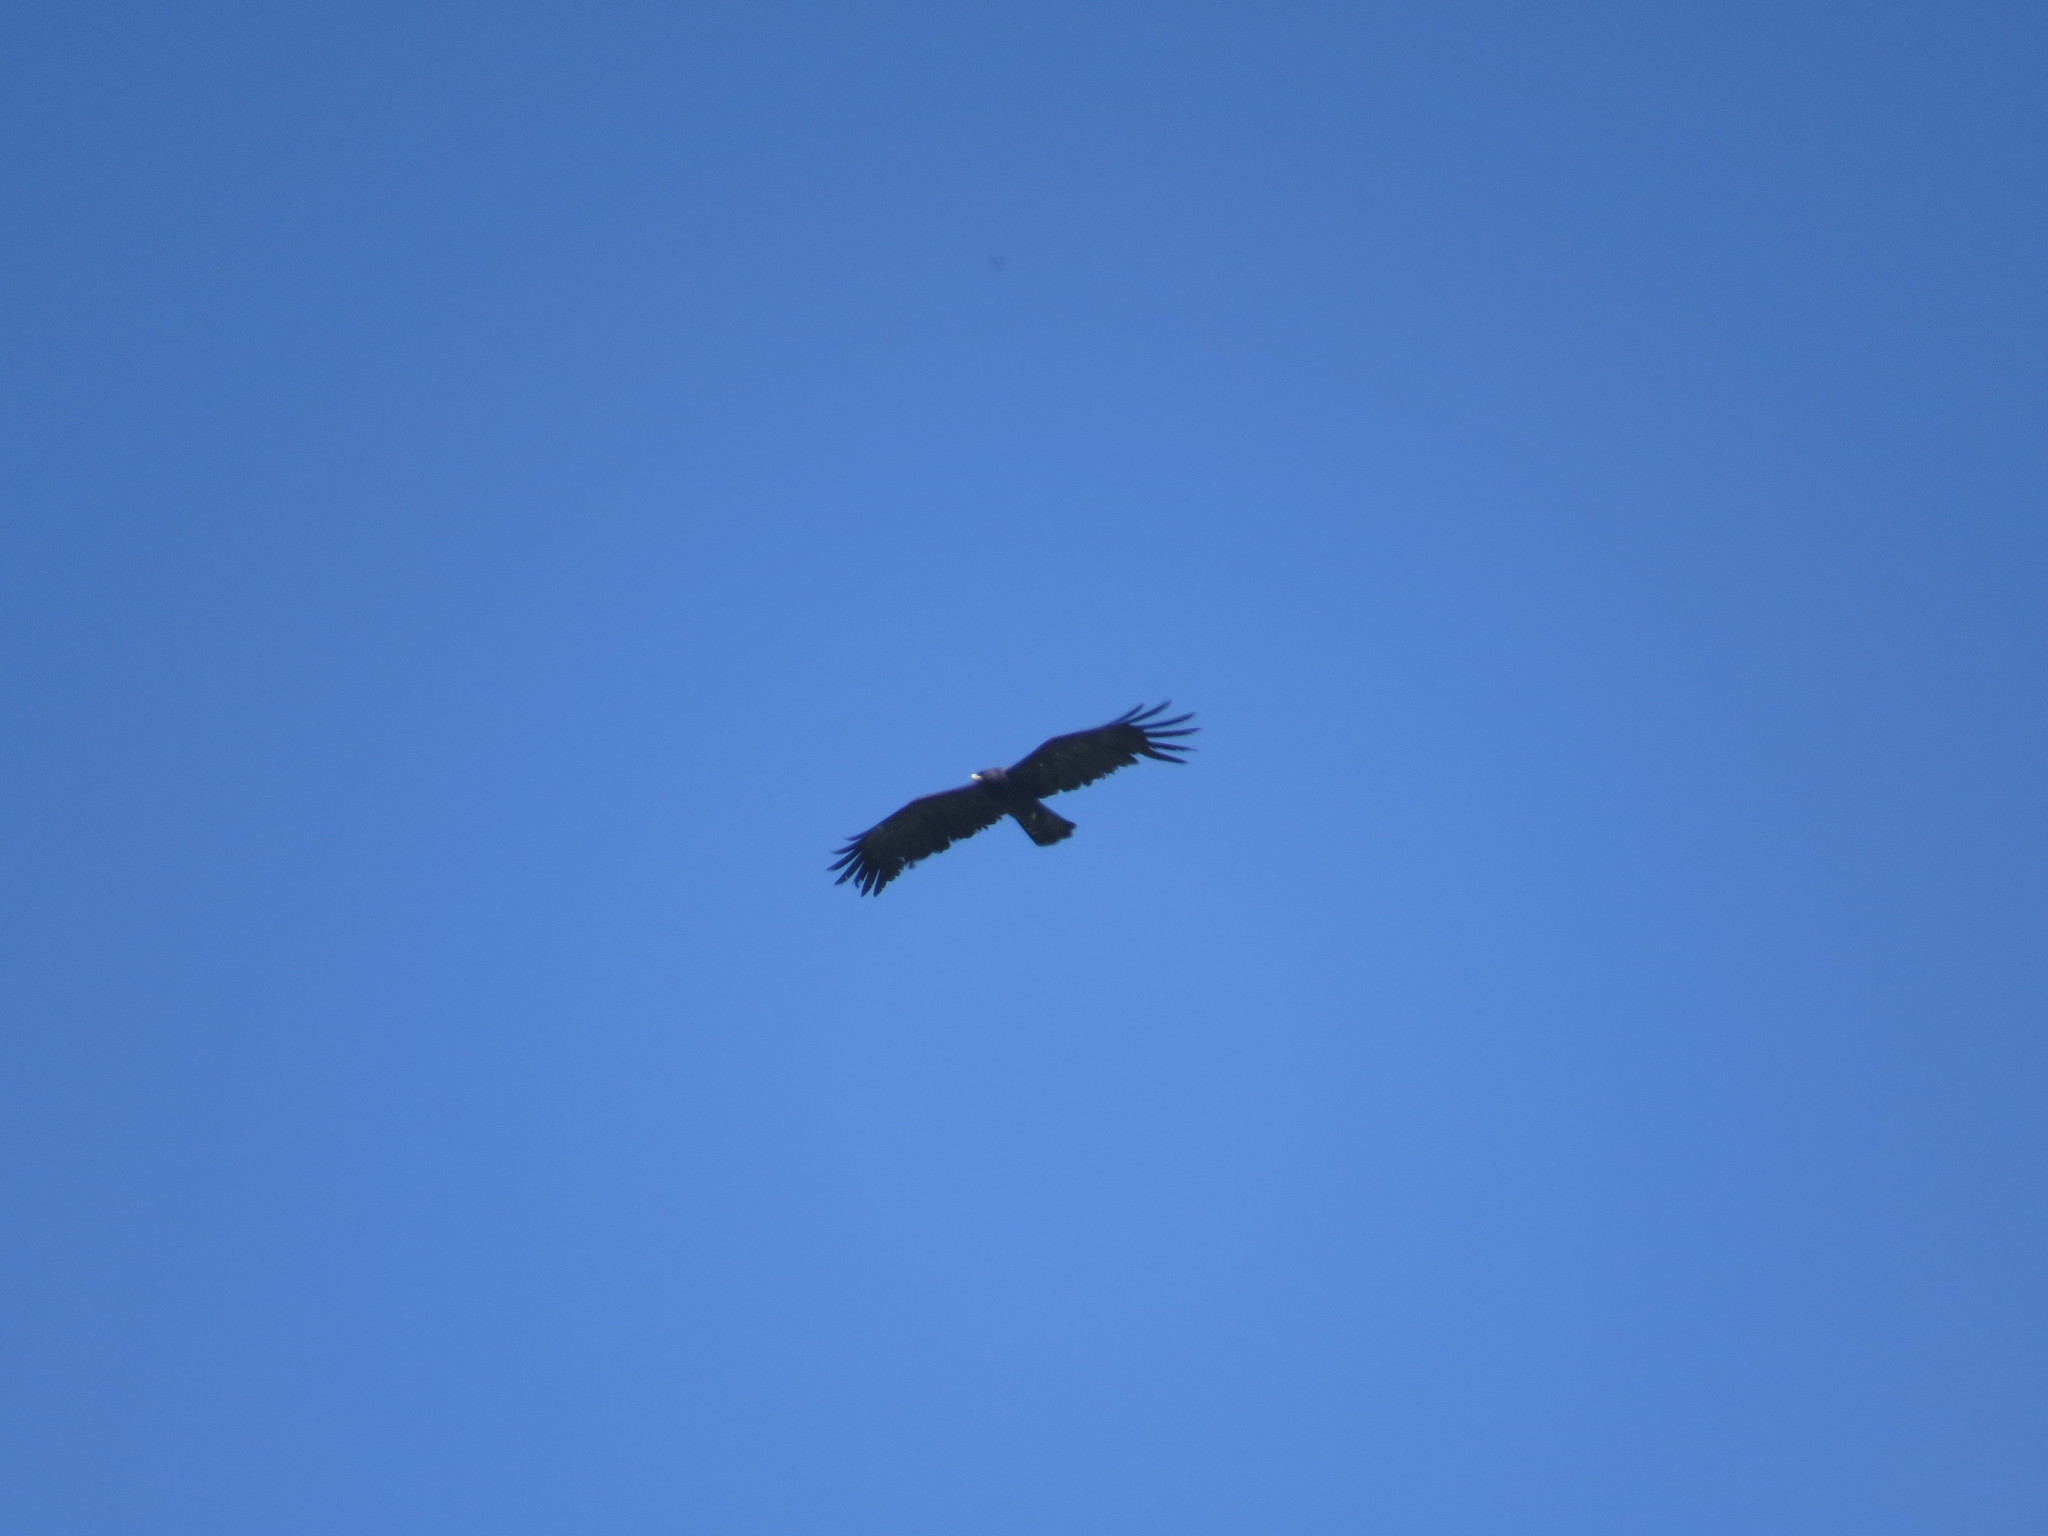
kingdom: Animalia
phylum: Chordata
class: Aves
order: Accipitriformes
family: Accipitridae
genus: Ictinaetus
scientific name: Ictinaetus malayensis
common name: Black eagle
